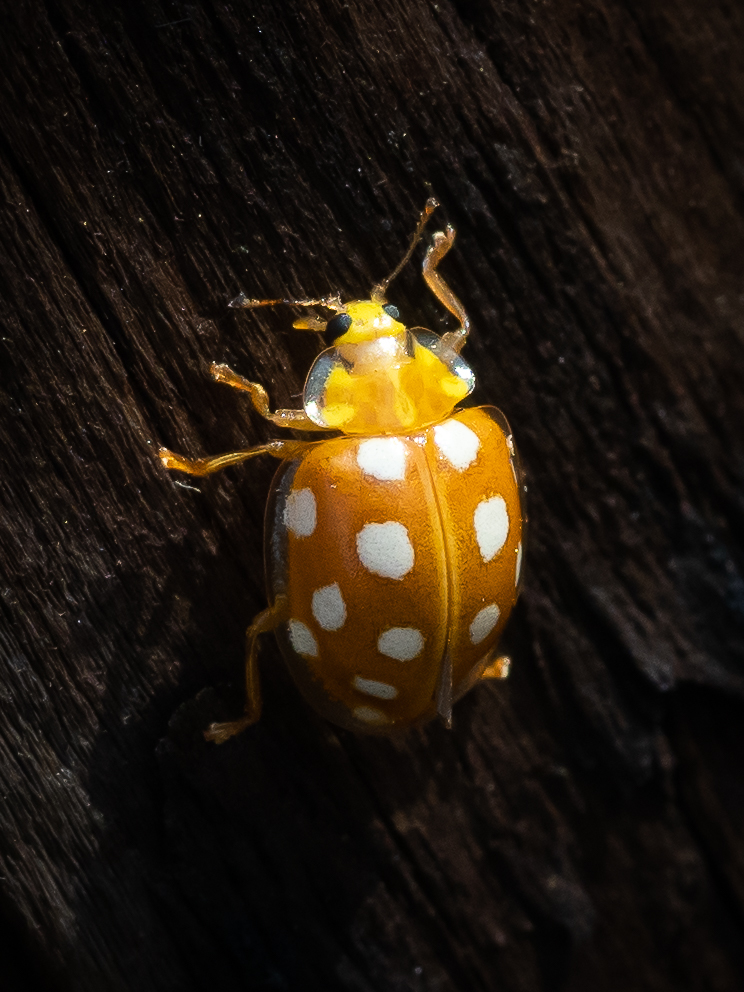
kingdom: Animalia
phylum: Arthropoda
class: Insecta
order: Coleoptera
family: Coccinellidae
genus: Halyzia
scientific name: Halyzia sedecimguttata
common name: Orange ladybird
